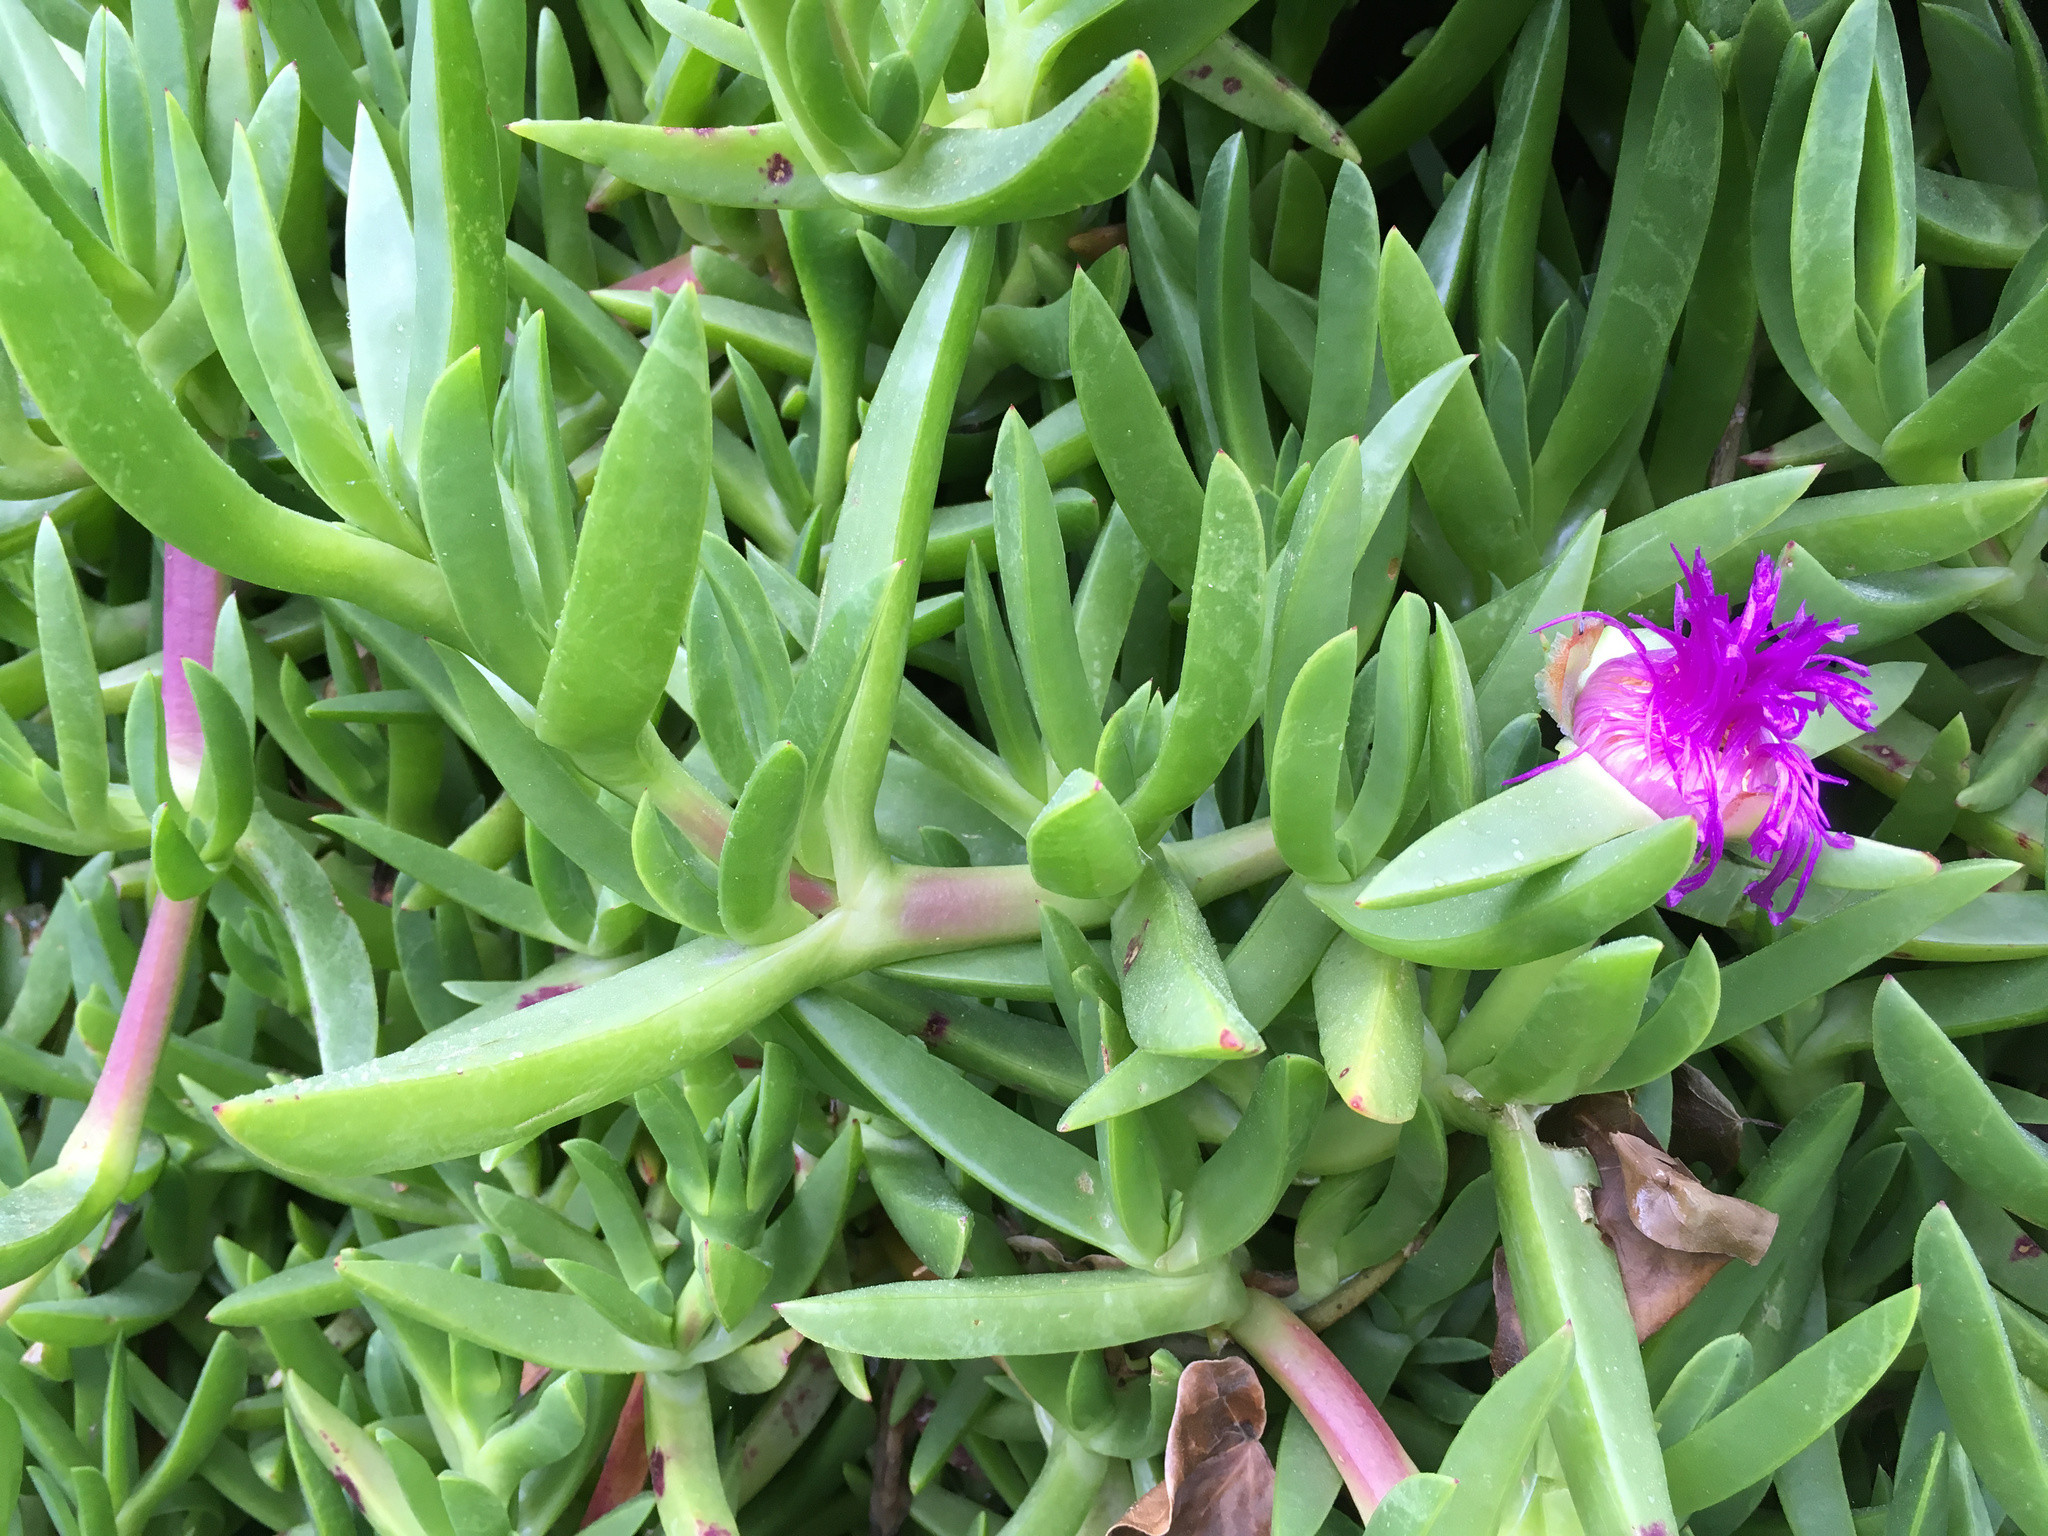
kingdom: Plantae
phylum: Tracheophyta
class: Magnoliopsida
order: Caryophyllales
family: Aizoaceae
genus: Carpobrotus
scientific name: Carpobrotus chilensis
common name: Sea fig
